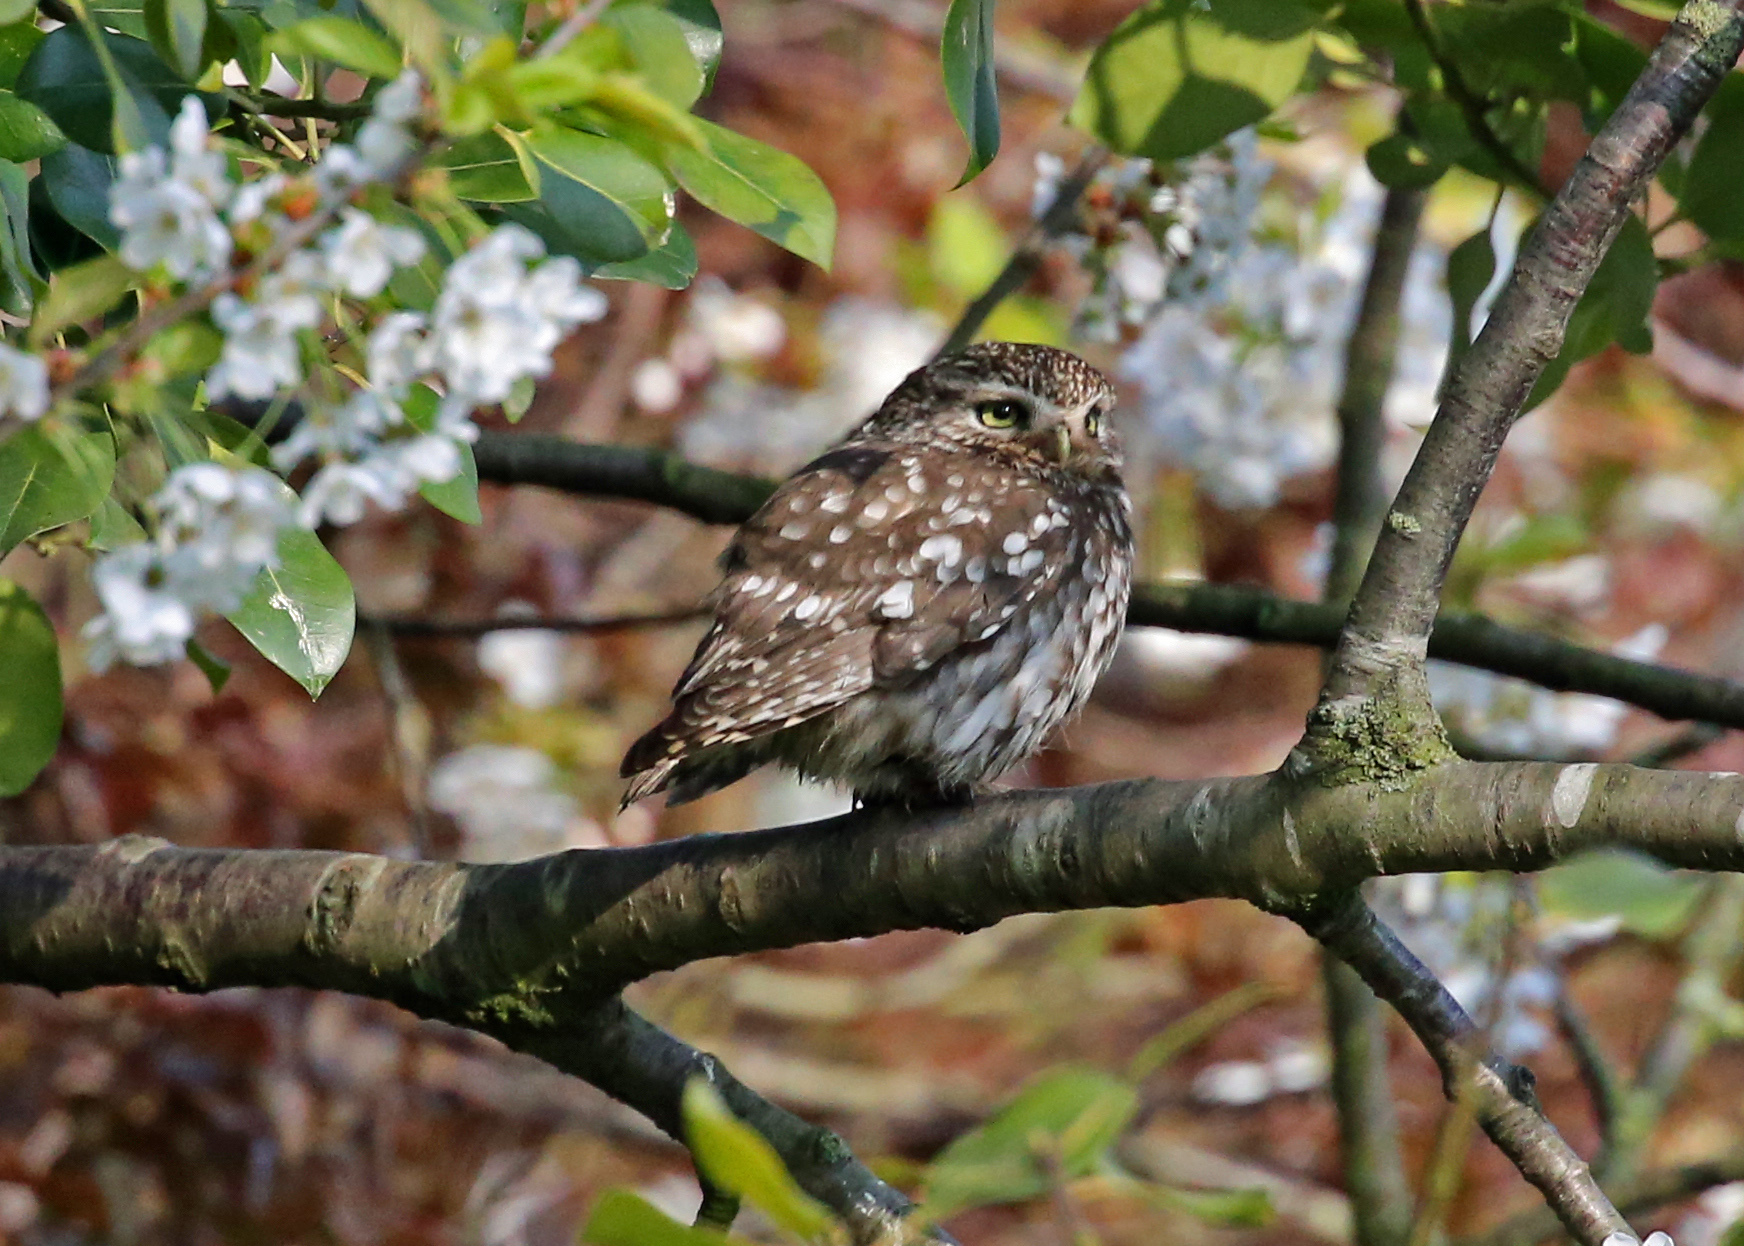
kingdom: Animalia
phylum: Chordata
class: Aves
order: Strigiformes
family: Strigidae
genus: Athene
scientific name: Athene noctua
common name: Little owl
